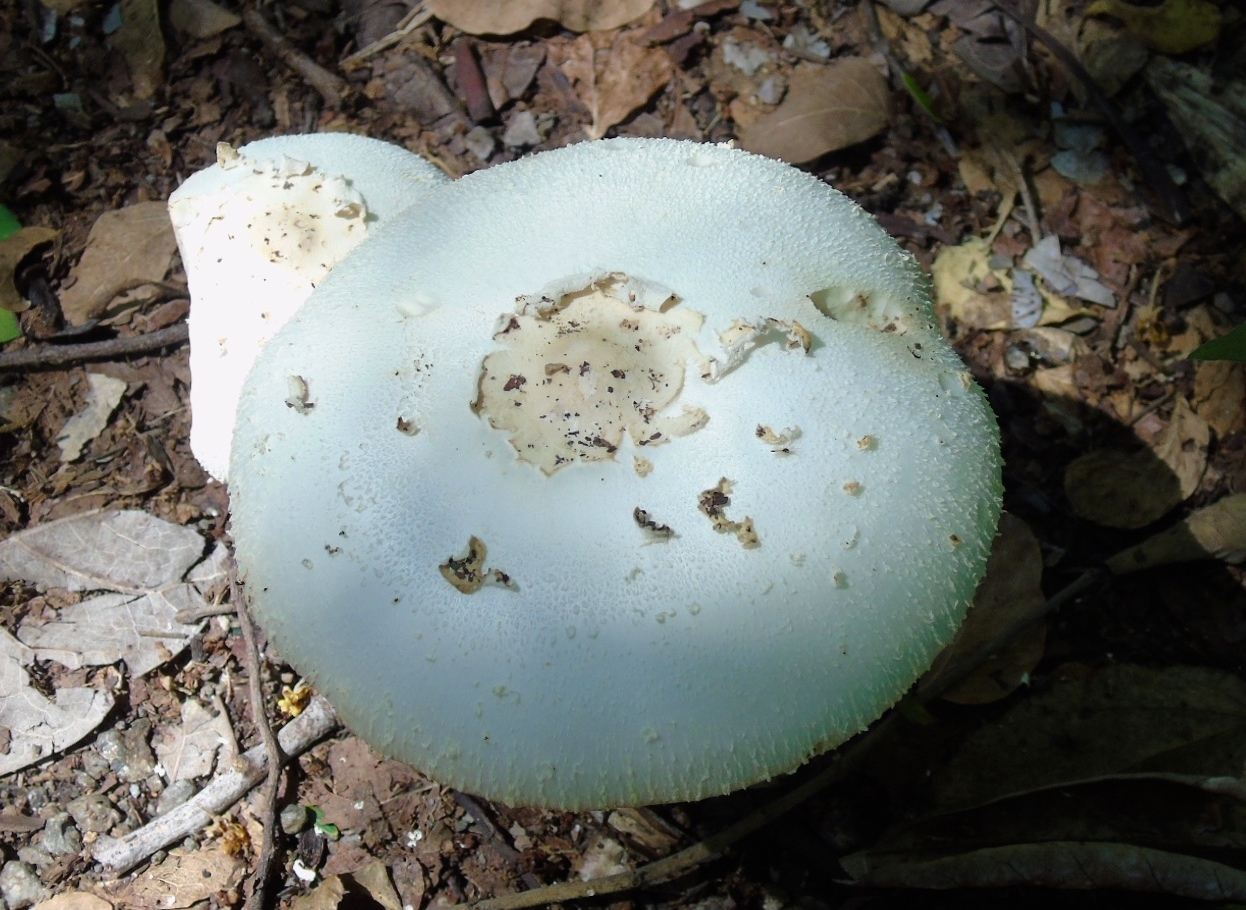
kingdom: Fungi
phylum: Basidiomycota
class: Agaricomycetes
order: Agaricales
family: Agaricaceae
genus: Chlorophyllum
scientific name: Chlorophyllum molybdites
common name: False parasol
